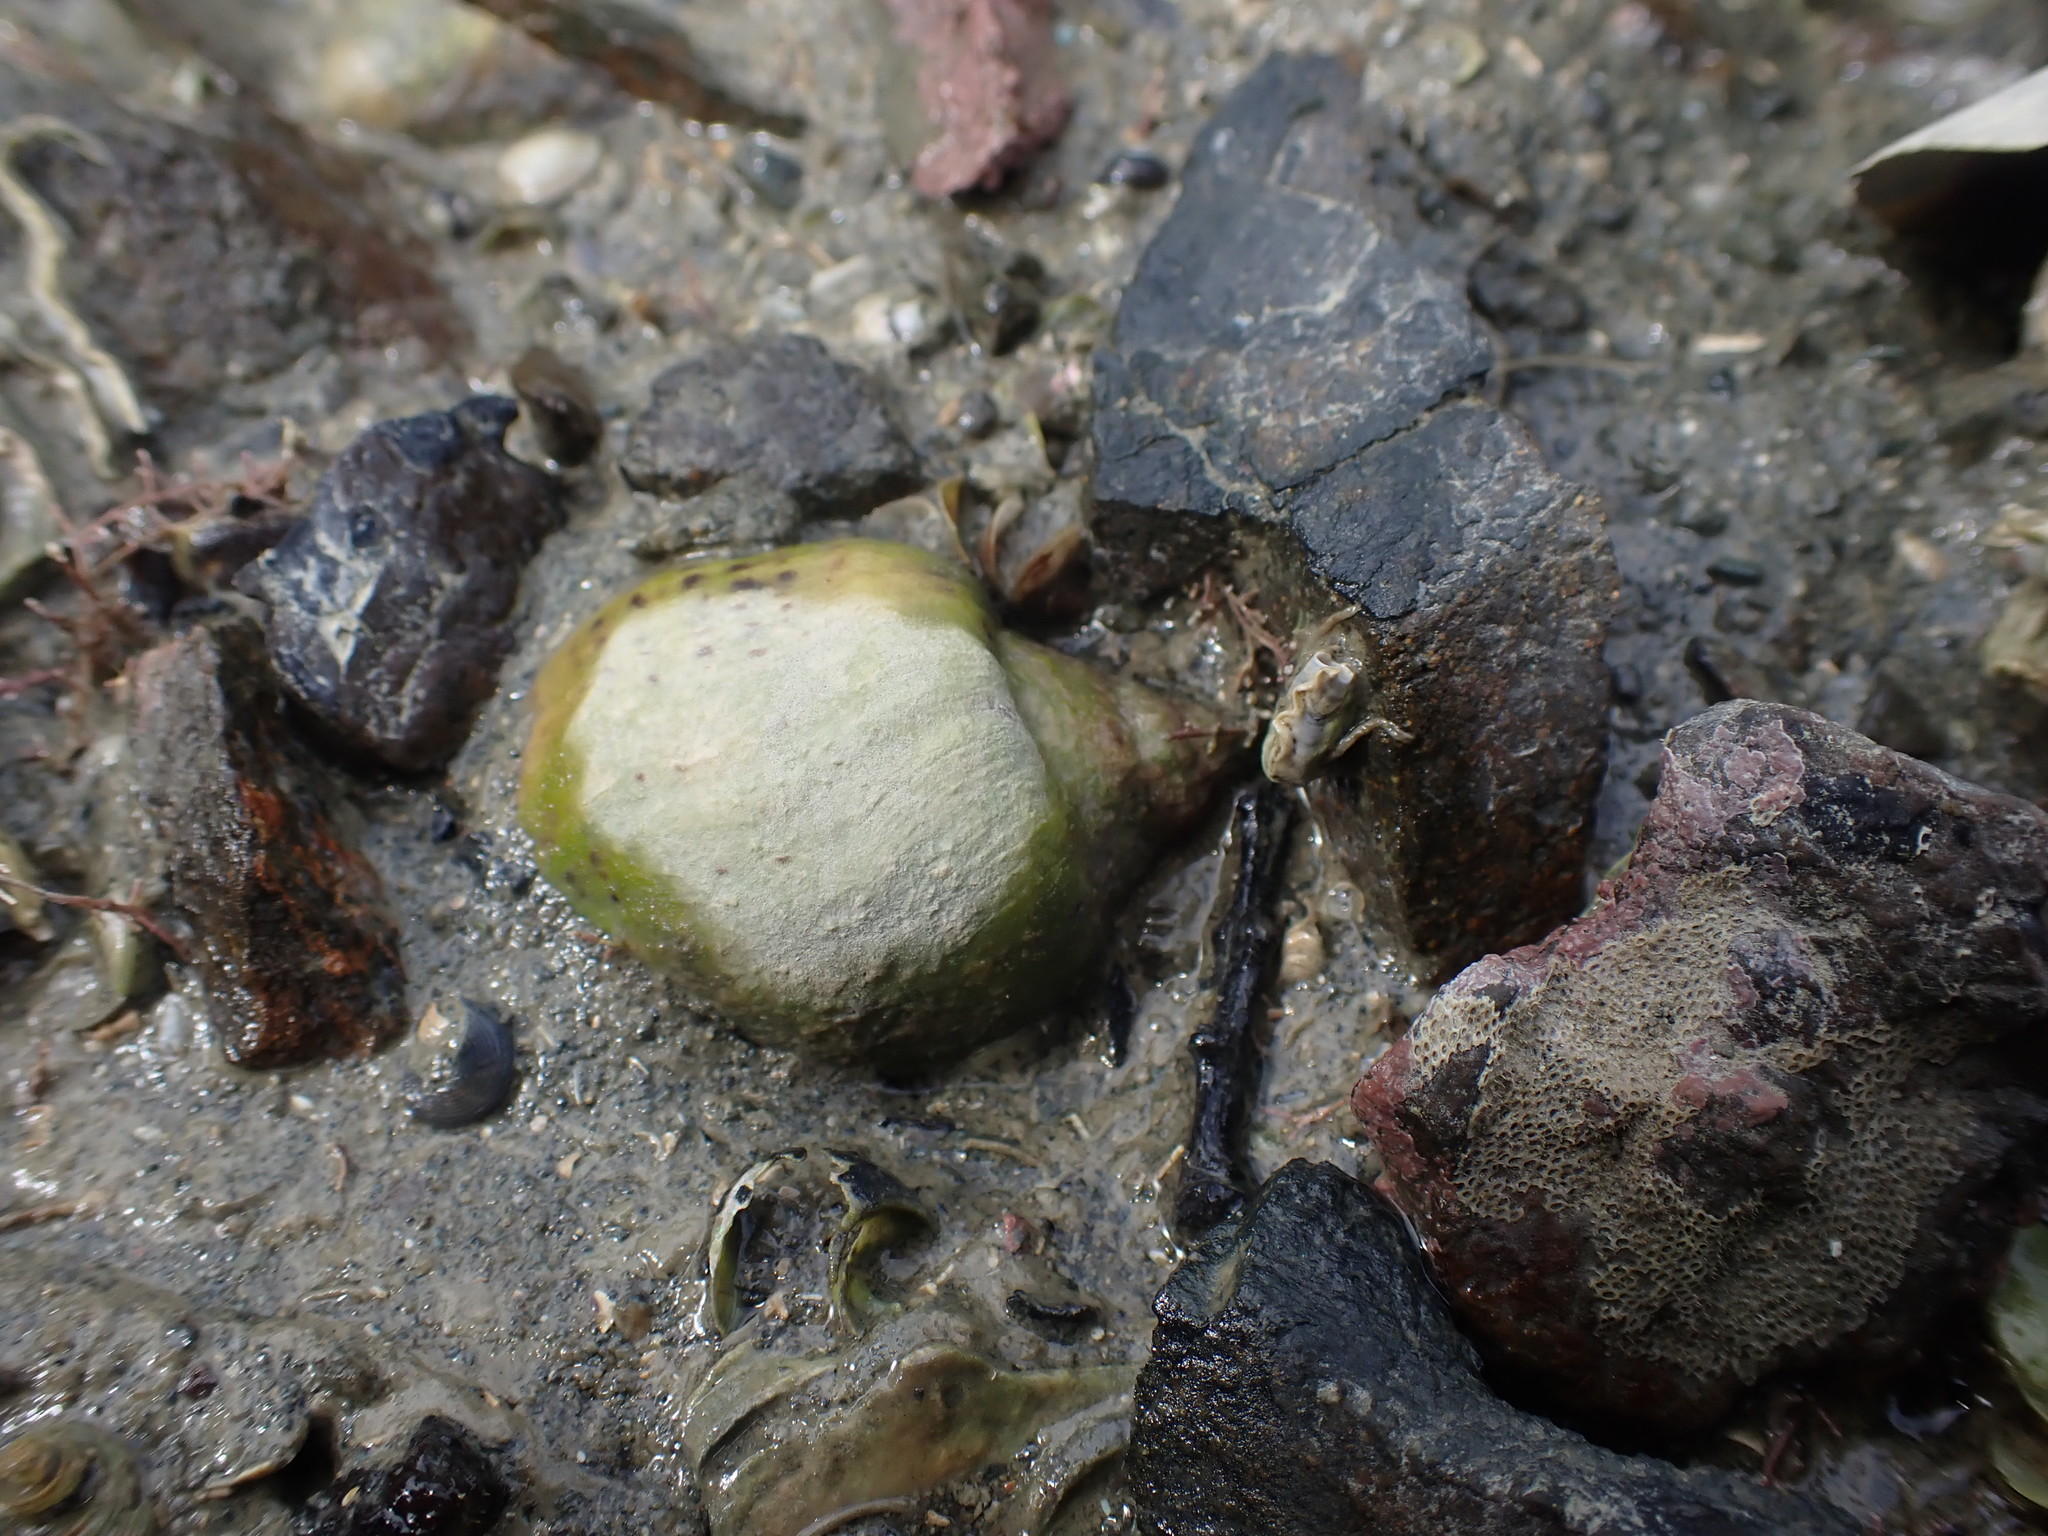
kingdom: Animalia
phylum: Mollusca
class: Gastropoda
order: Neogastropoda
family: Cominellidae
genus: Cominella
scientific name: Cominella adspersa
